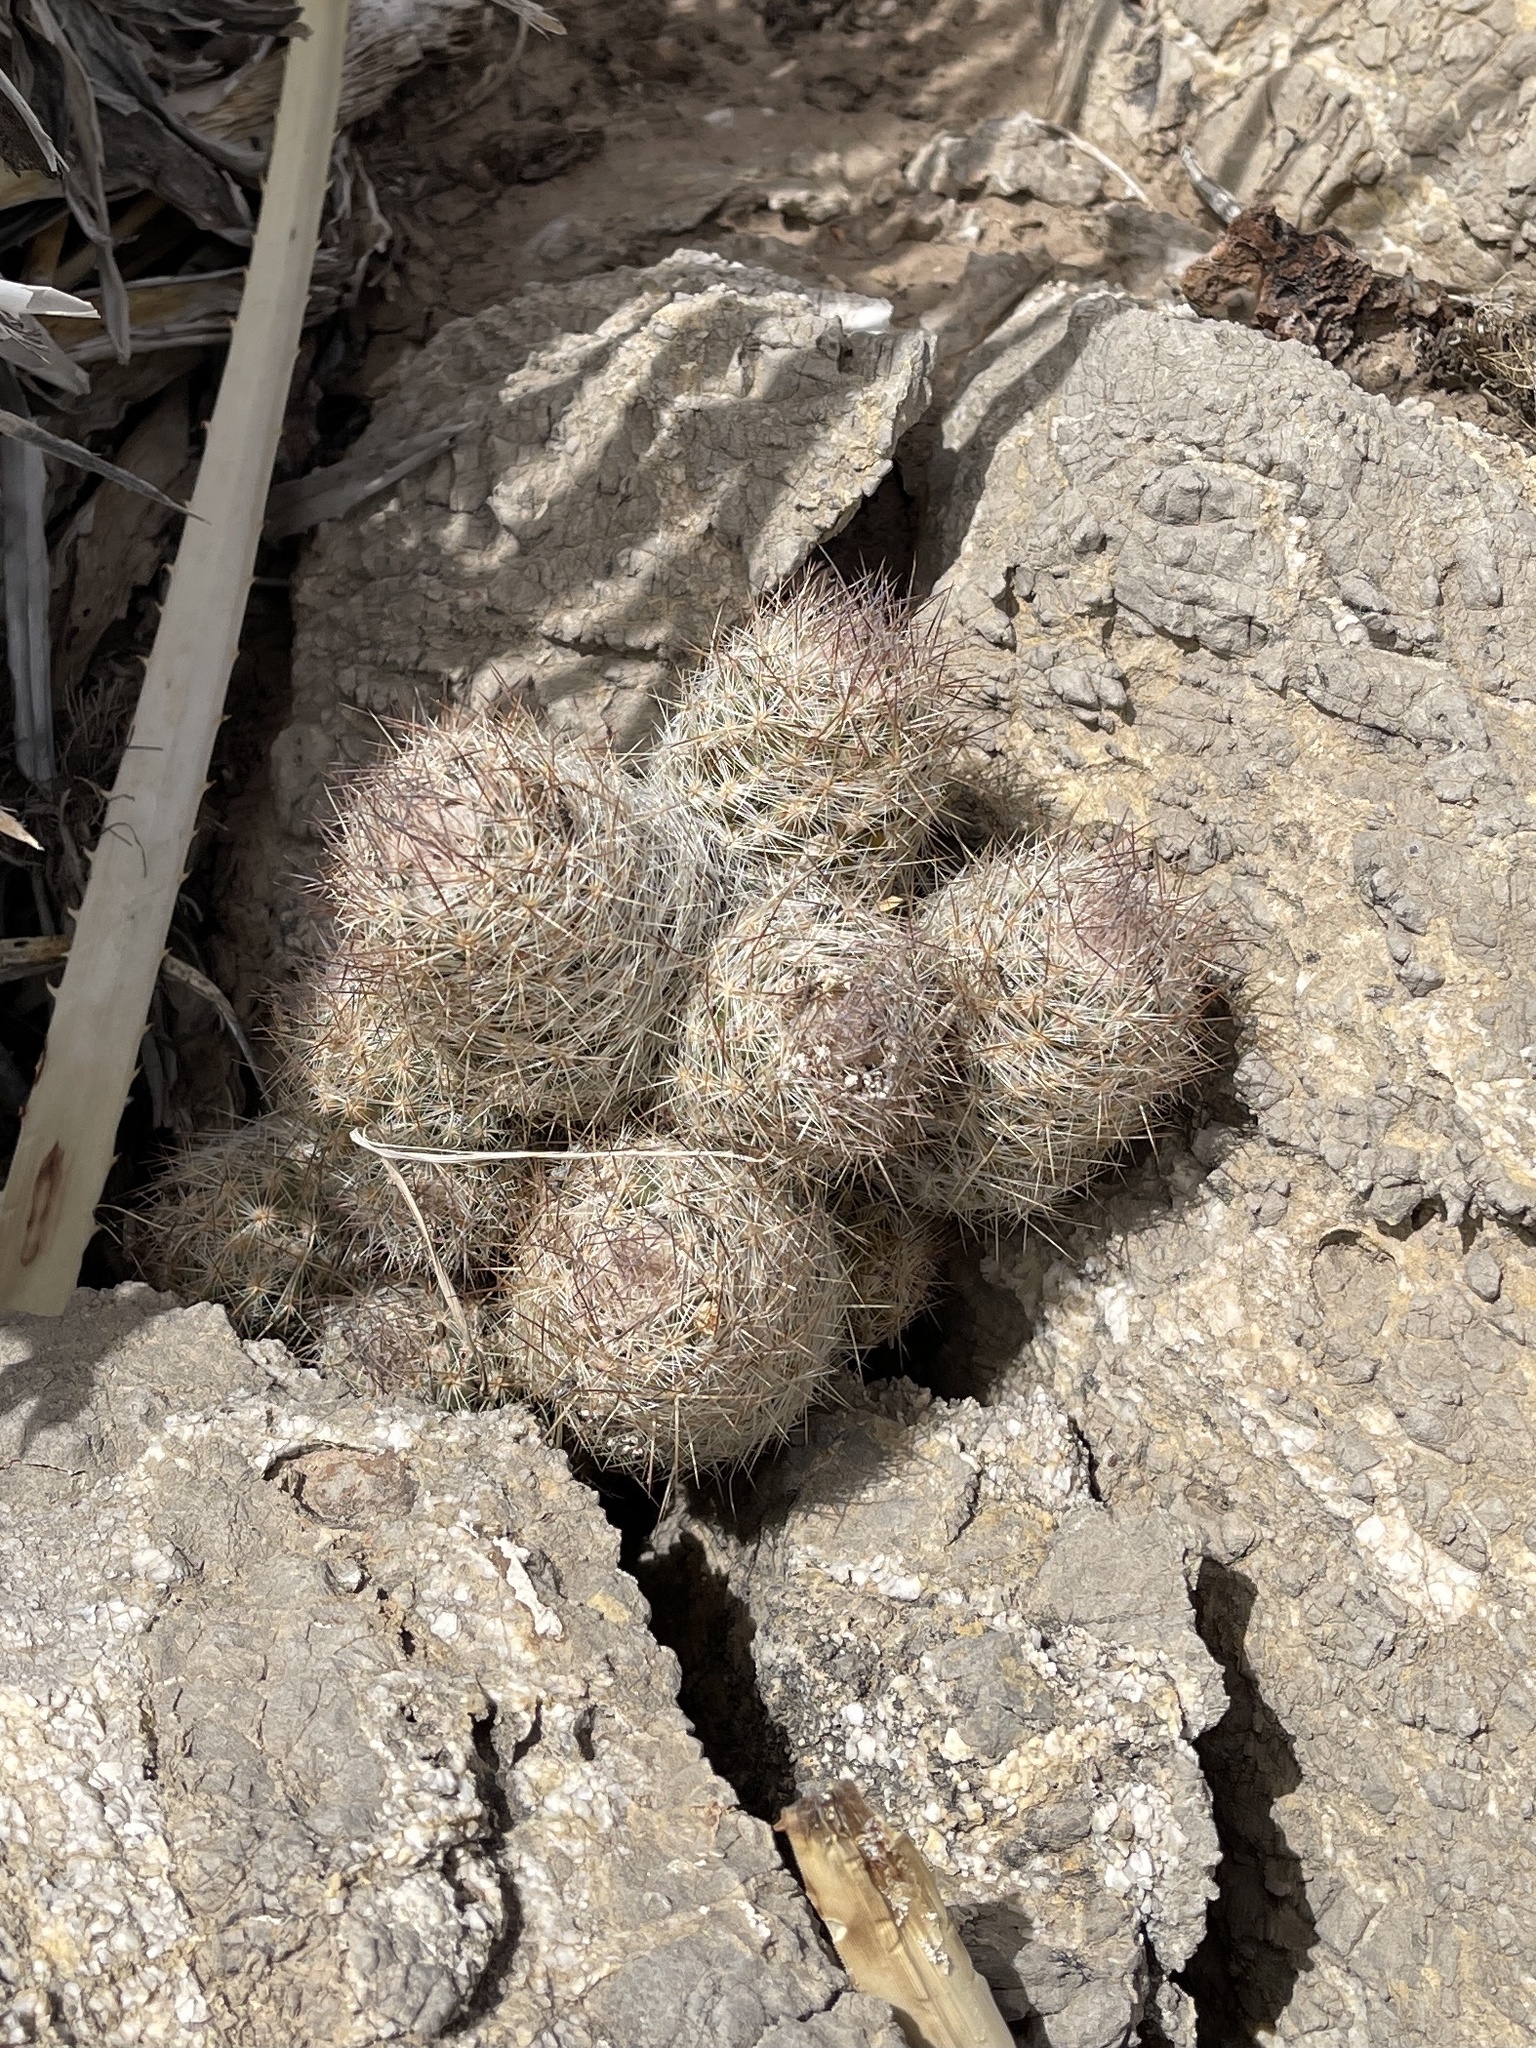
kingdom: Plantae
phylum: Tracheophyta
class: Magnoliopsida
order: Caryophyllales
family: Cactaceae
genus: Pelecyphora
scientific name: Pelecyphora tuberculosa
